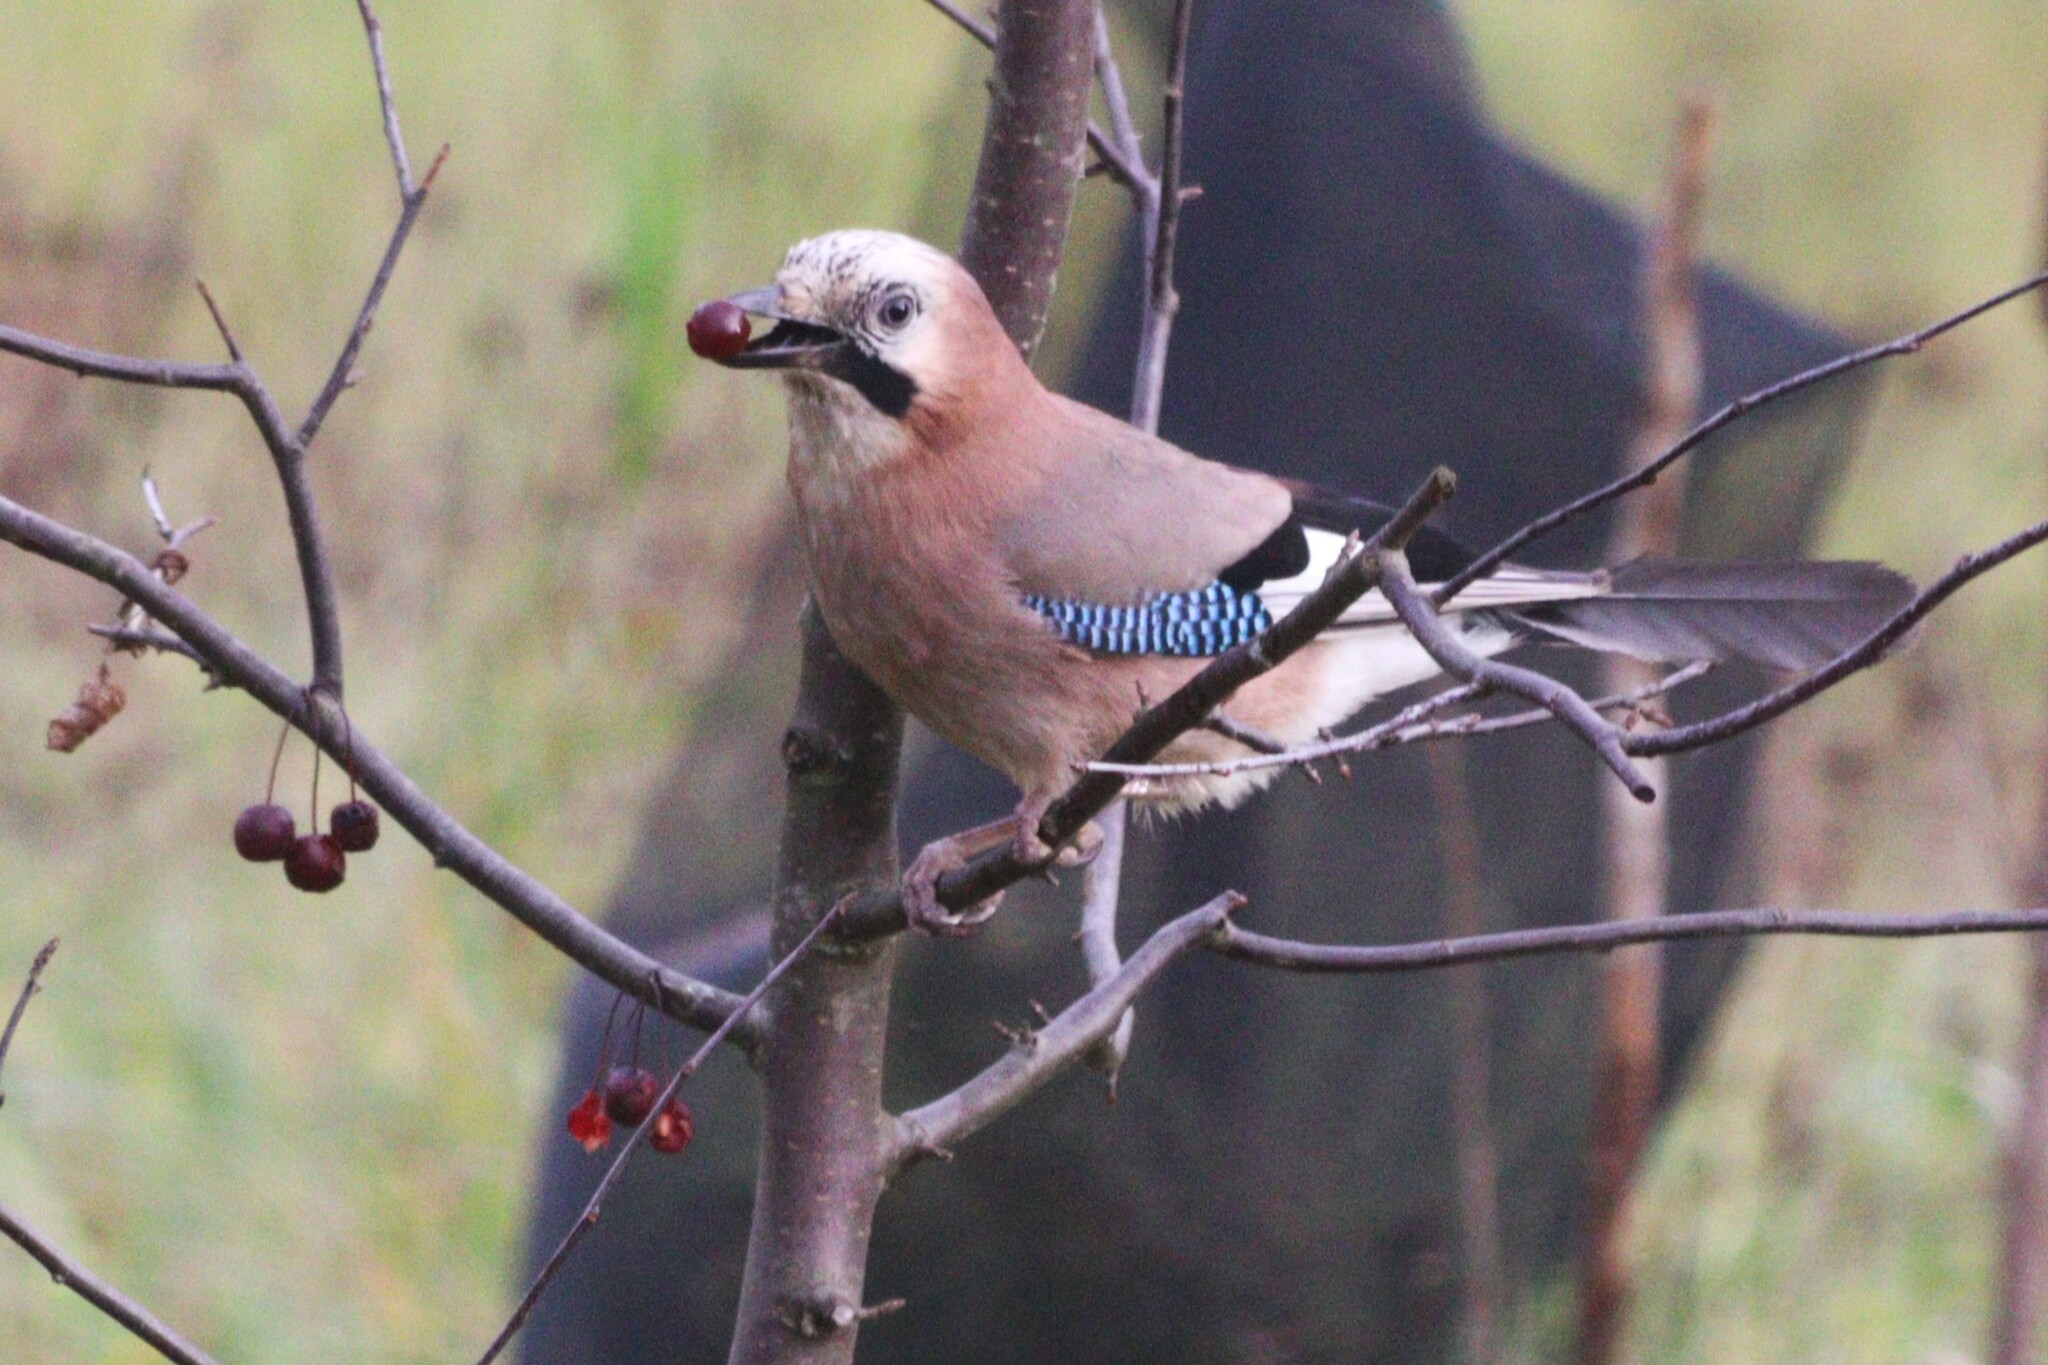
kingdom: Animalia
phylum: Chordata
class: Aves
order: Passeriformes
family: Corvidae
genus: Garrulus
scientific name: Garrulus glandarius
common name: Eurasian jay
